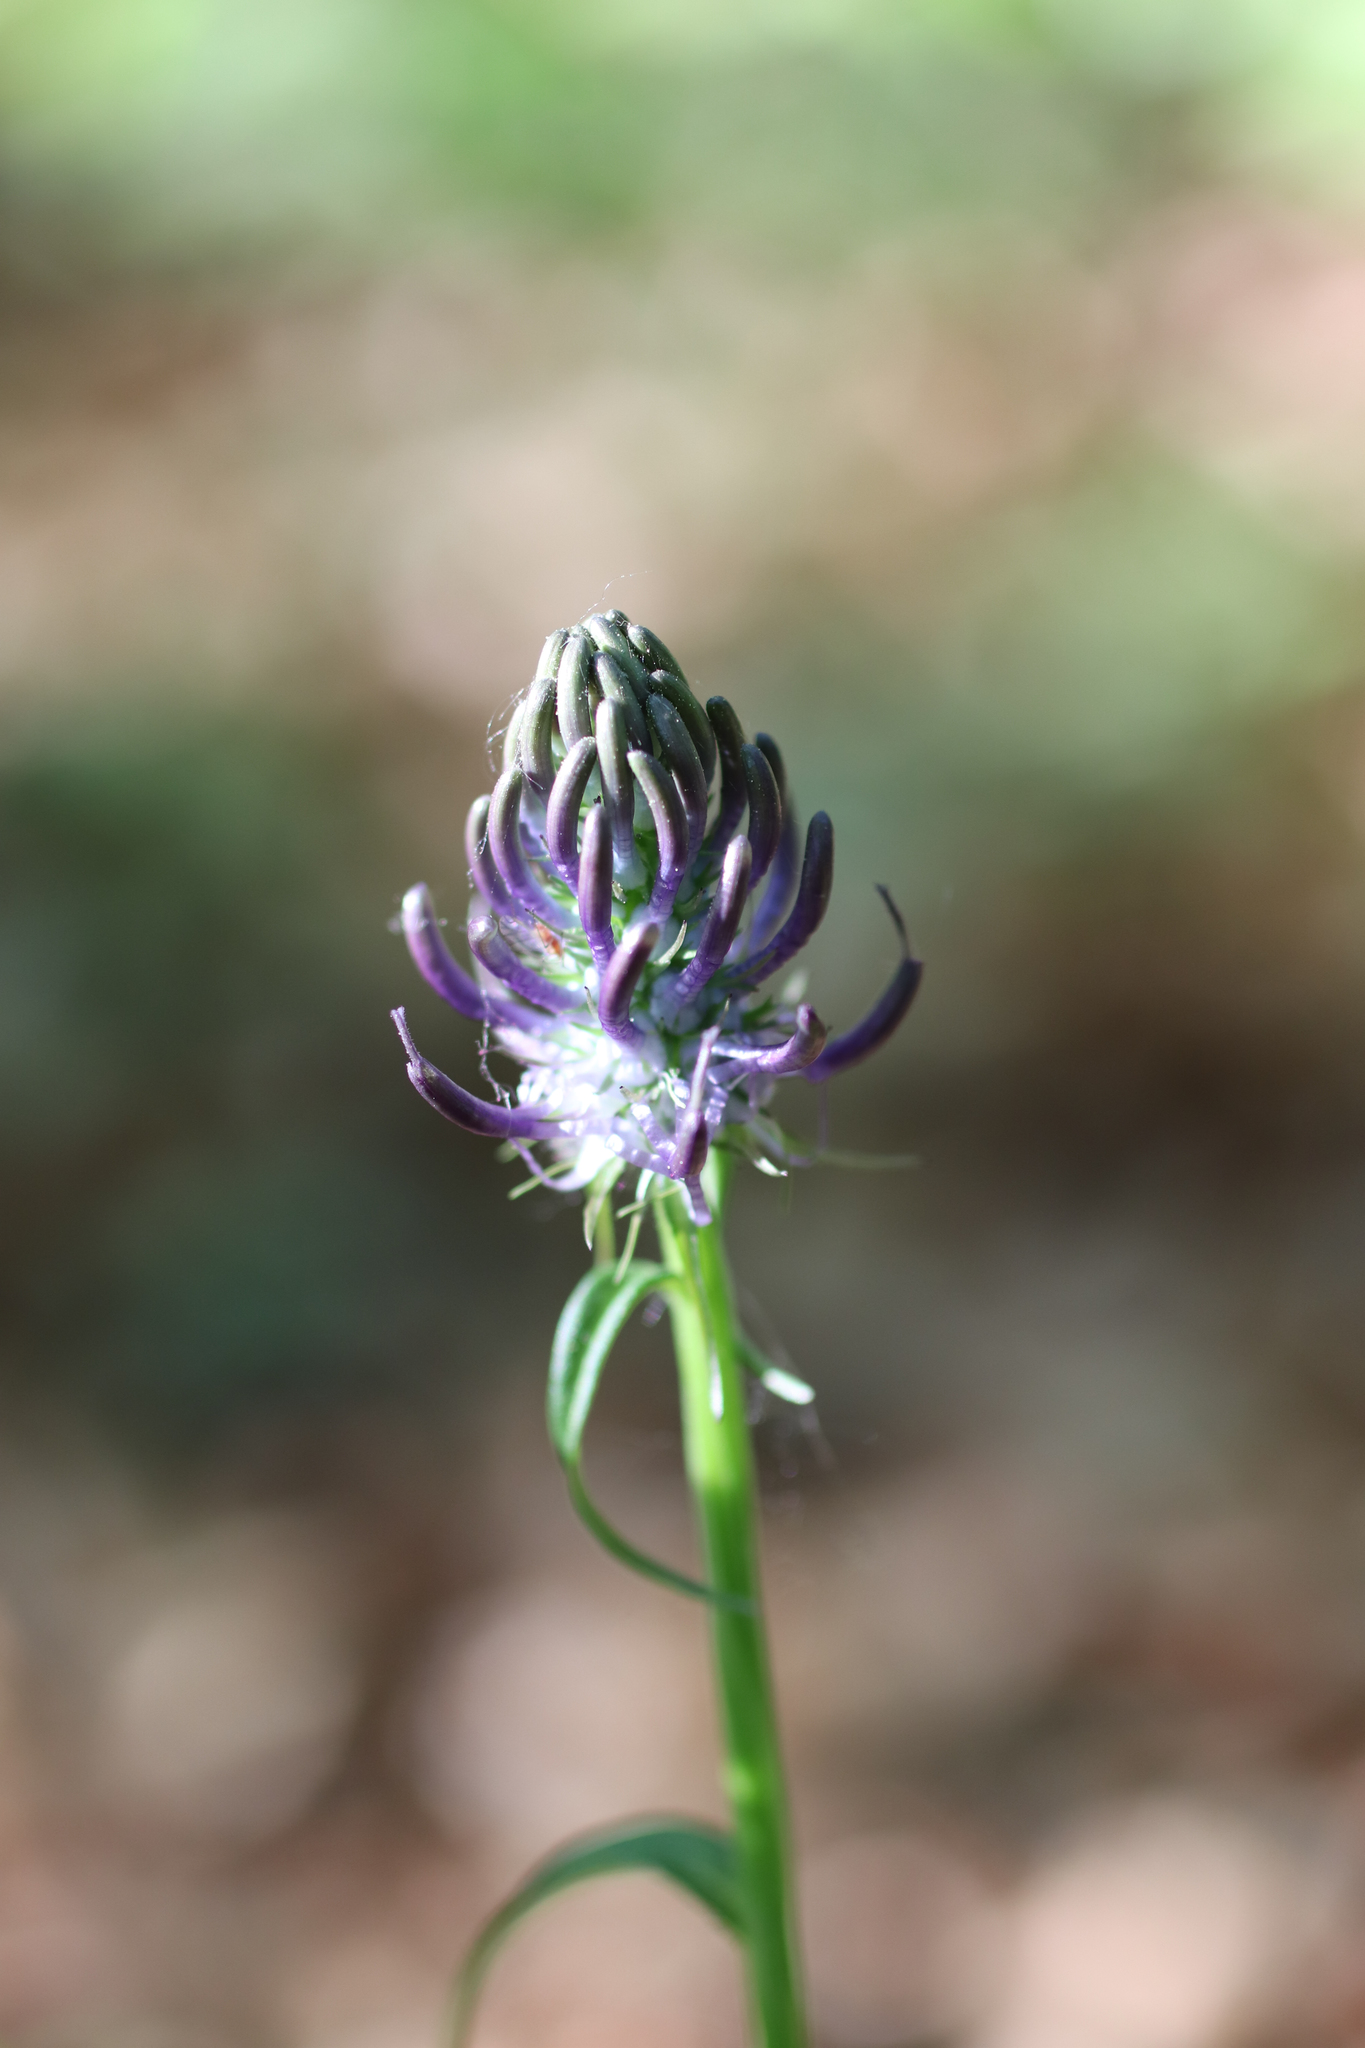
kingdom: Plantae
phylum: Tracheophyta
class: Magnoliopsida
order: Asterales
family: Campanulaceae
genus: Phyteuma
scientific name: Phyteuma nigrum
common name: Black rampion
